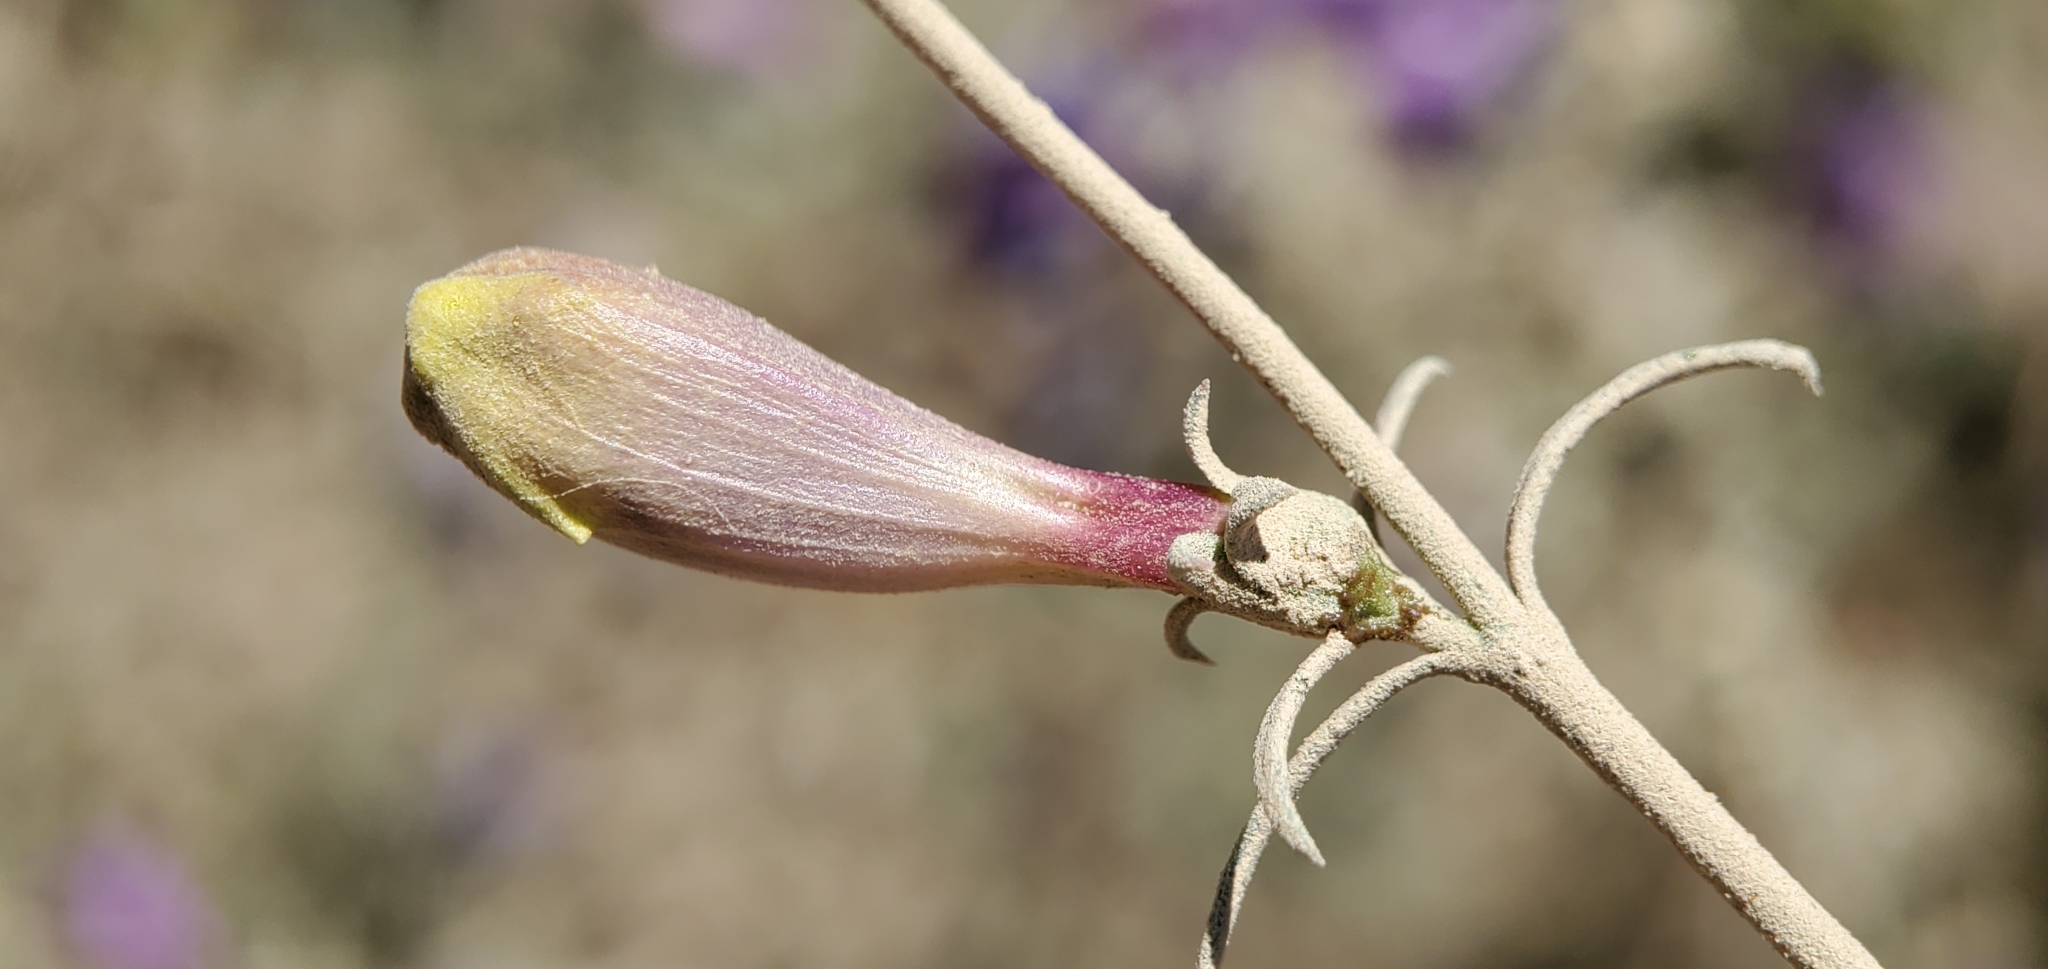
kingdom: Plantae
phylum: Tracheophyta
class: Magnoliopsida
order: Lamiales
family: Plantaginaceae
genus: Penstemon
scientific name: Penstemon heterophyllus
